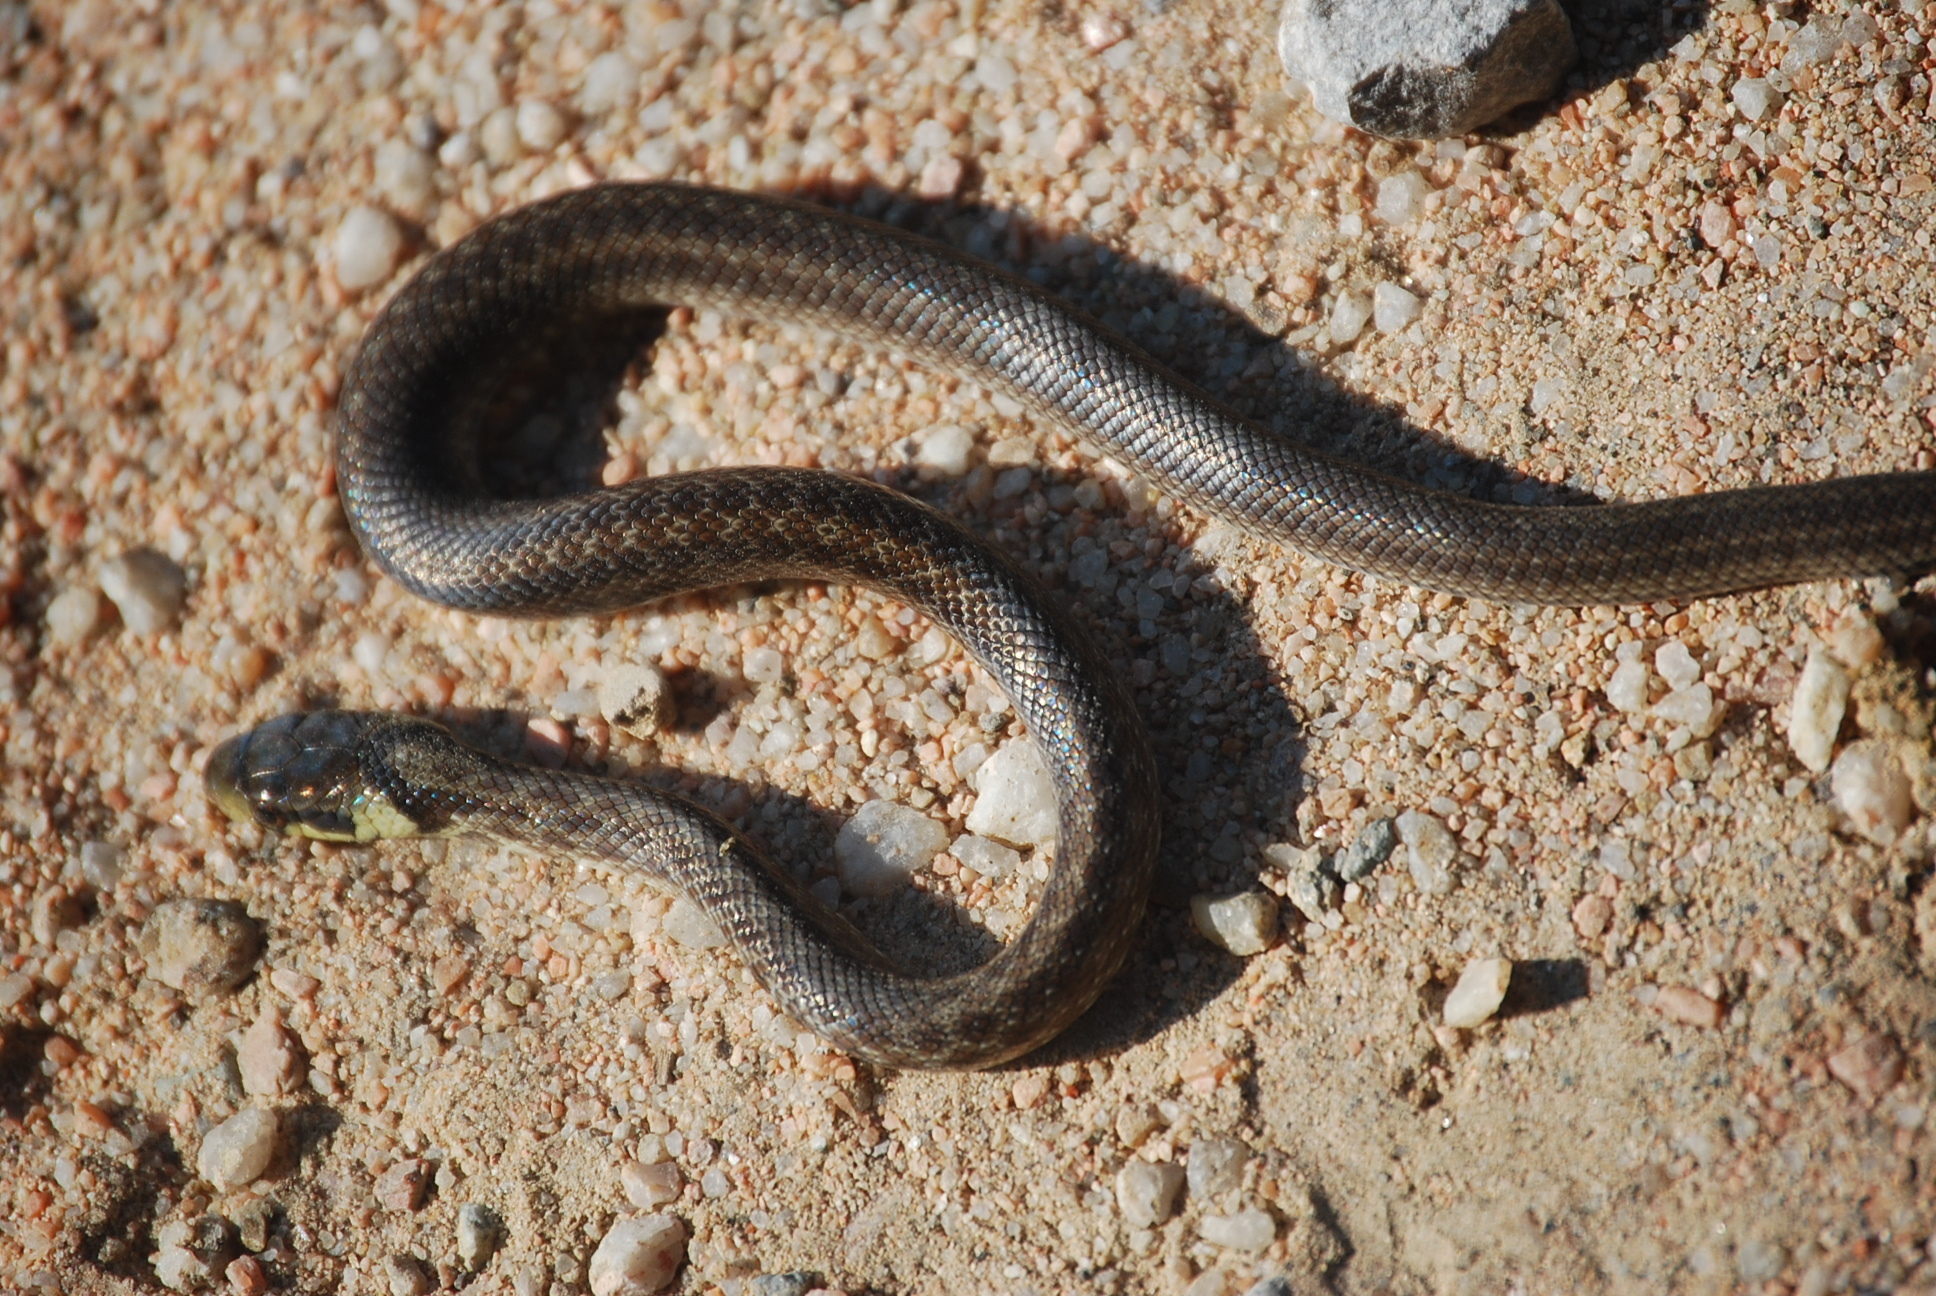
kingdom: Animalia
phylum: Chordata
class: Squamata
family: Colubridae
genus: Zamenis
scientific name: Zamenis longissimus
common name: Aesculapean snake
